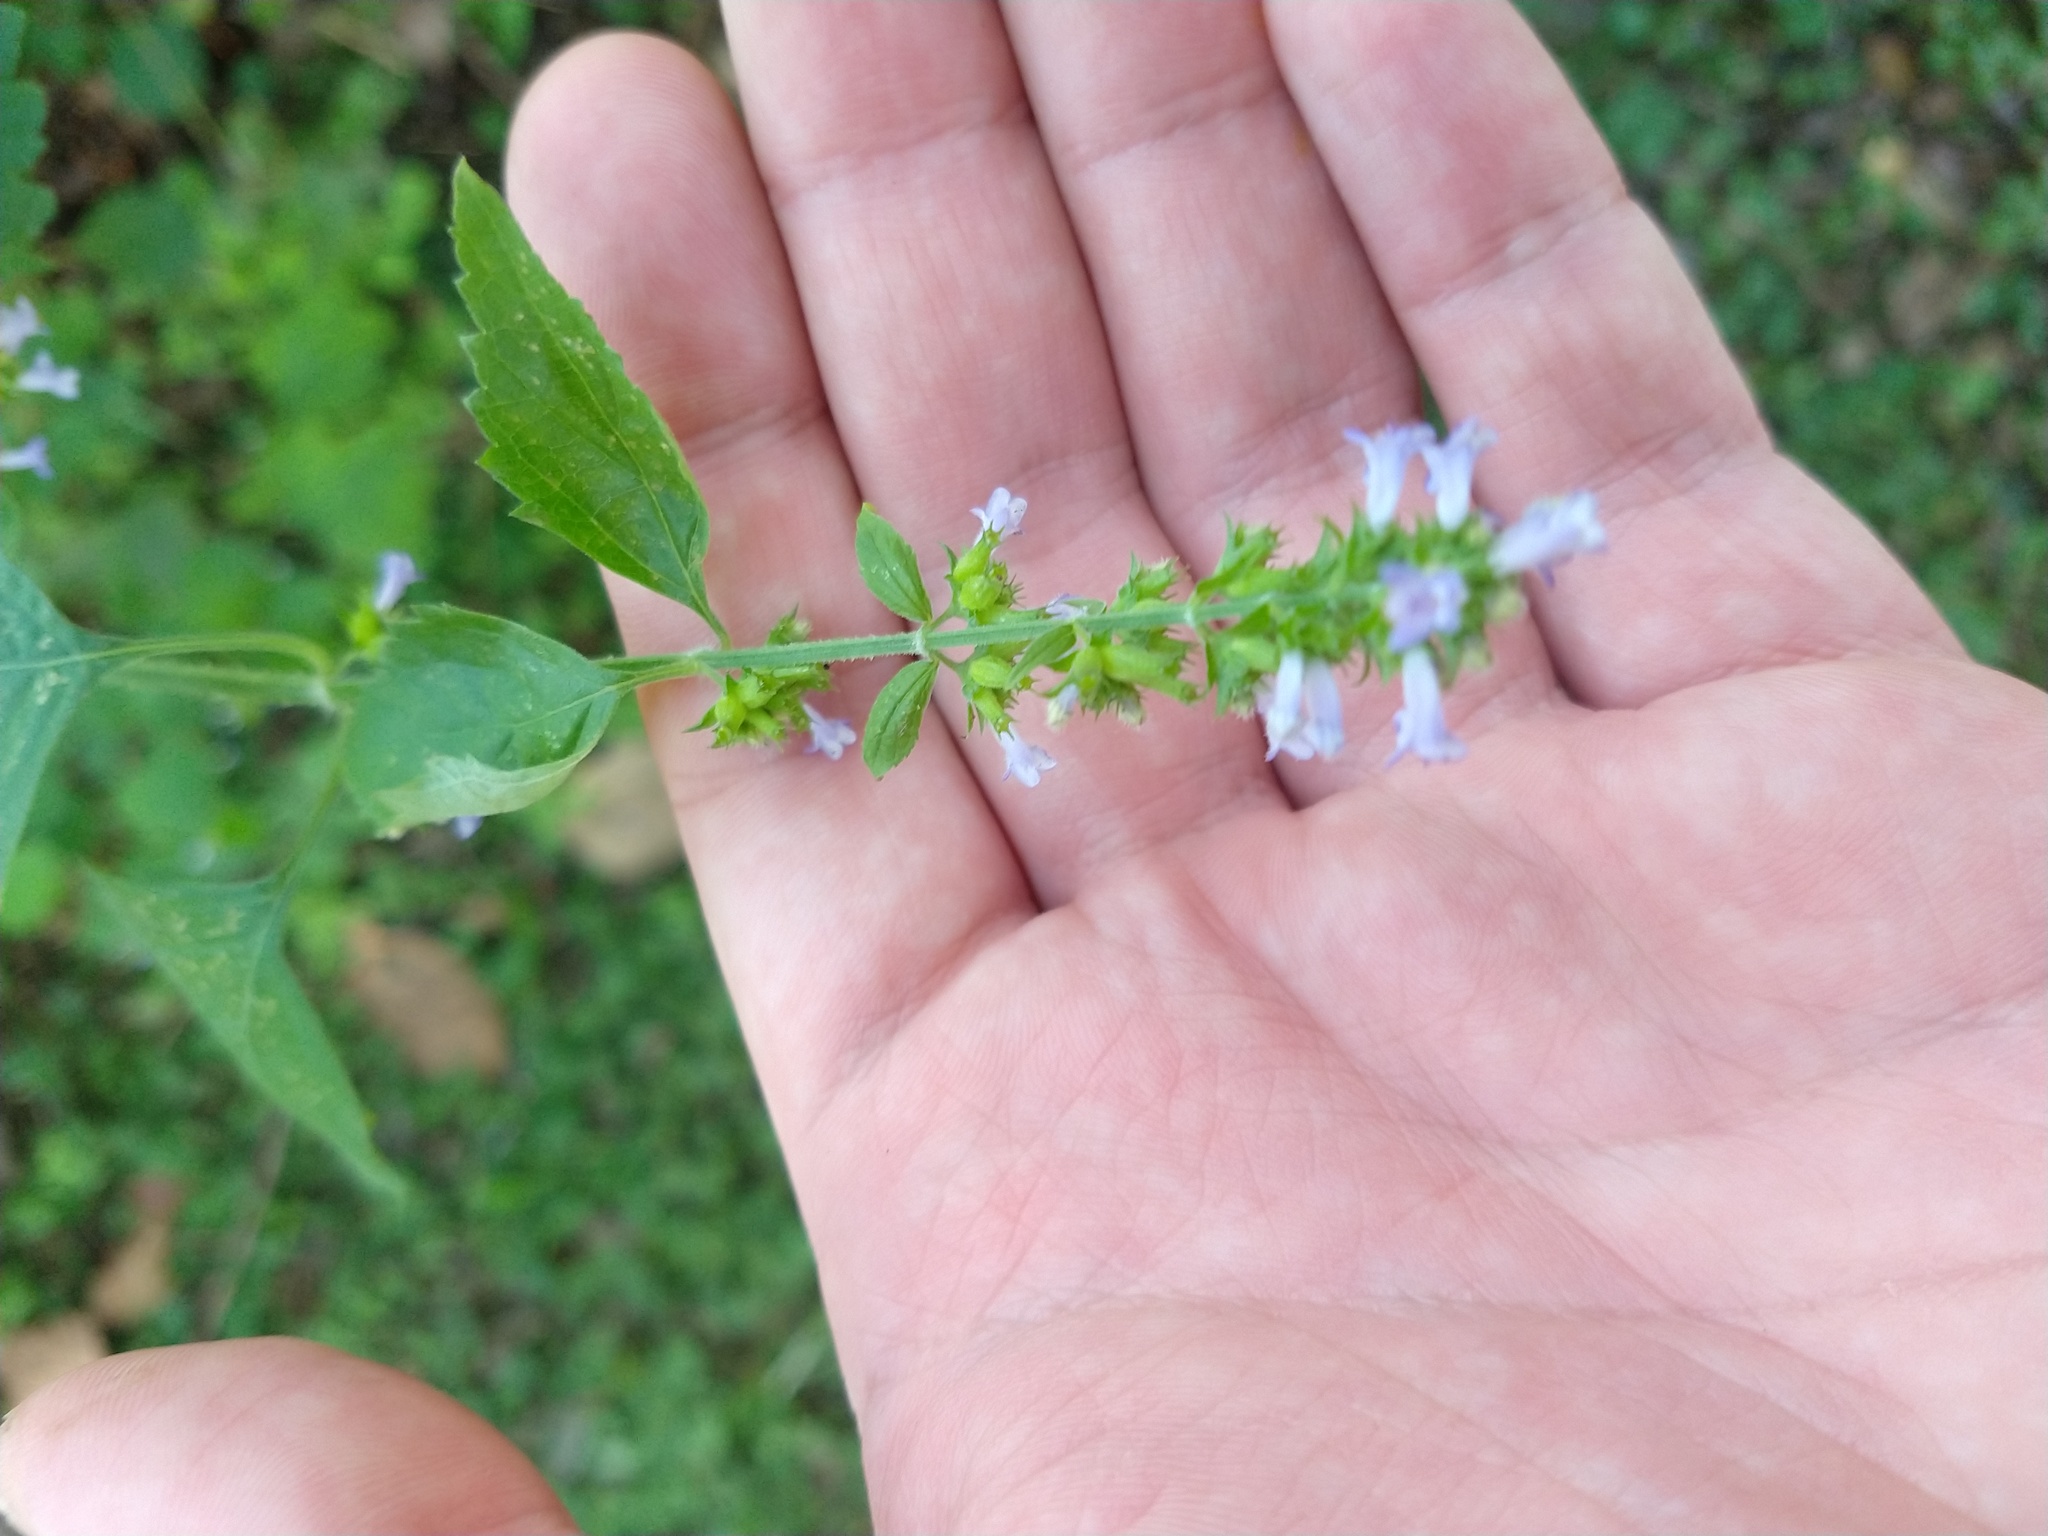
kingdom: Plantae
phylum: Tracheophyta
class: Magnoliopsida
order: Lamiales
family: Lamiaceae
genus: Cantinoa
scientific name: Cantinoa mutabilis
